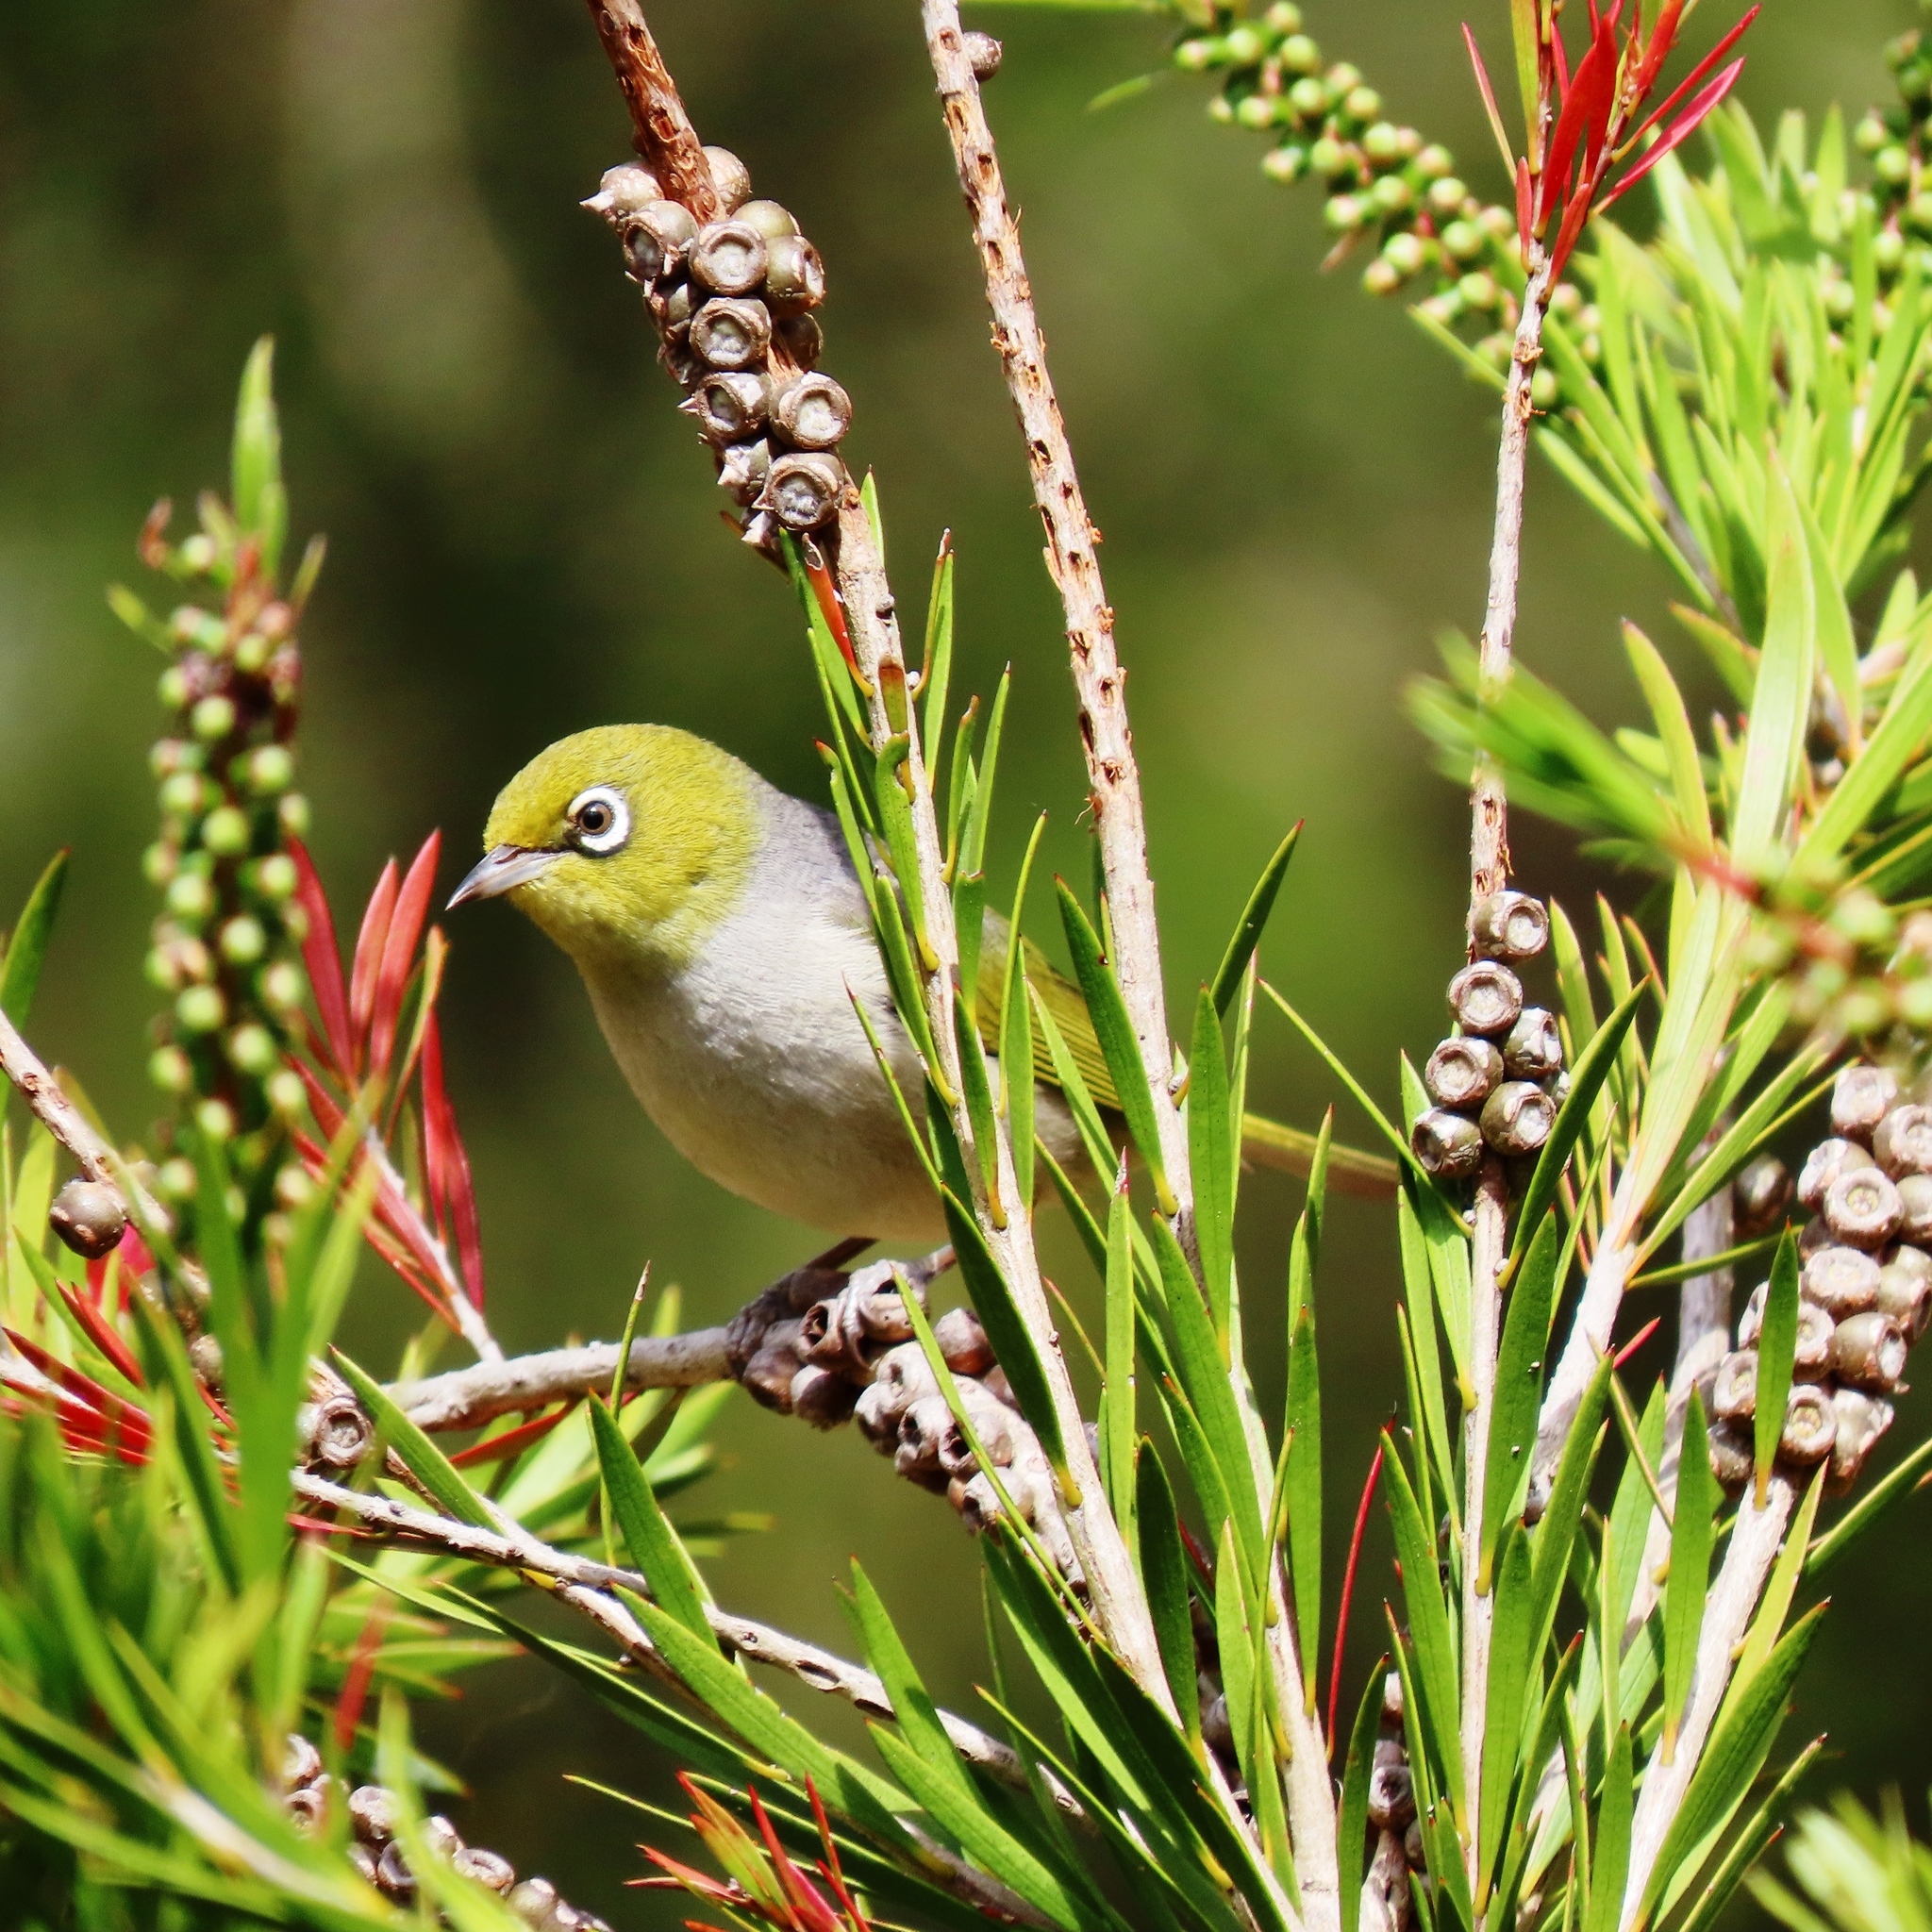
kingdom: Animalia
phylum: Chordata
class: Aves
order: Passeriformes
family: Zosteropidae
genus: Zosterops
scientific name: Zosterops lateralis
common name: Silvereye
